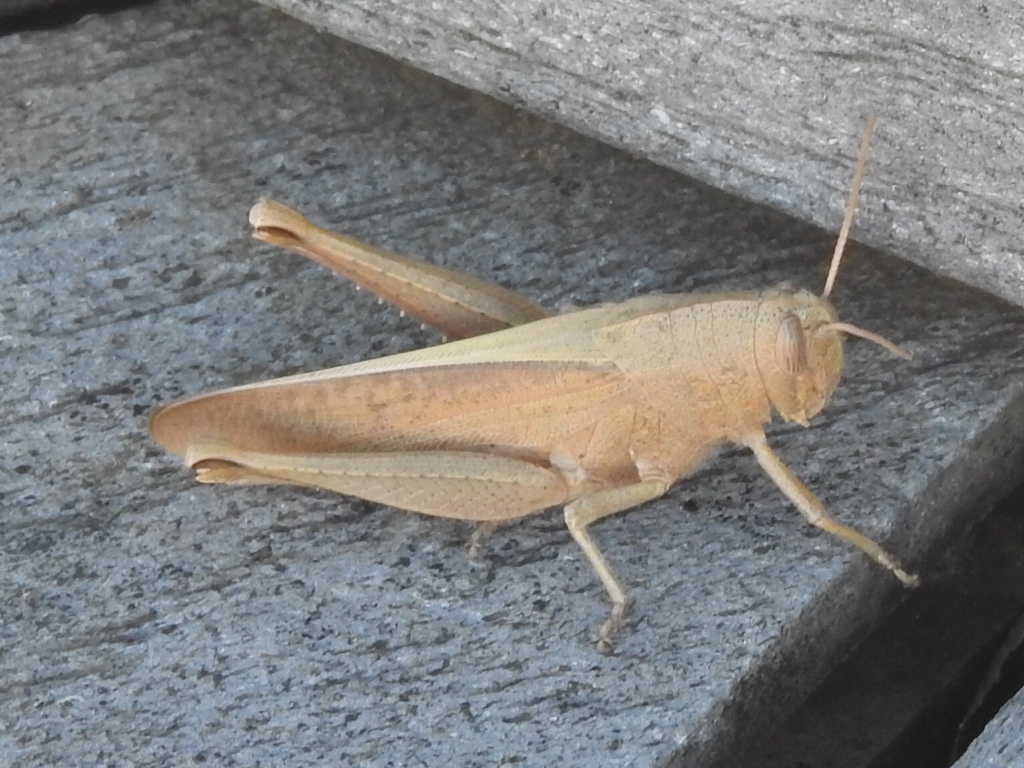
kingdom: Animalia
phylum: Arthropoda
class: Insecta
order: Orthoptera
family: Acrididae
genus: Schistocerca
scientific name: Schistocerca damnifica
